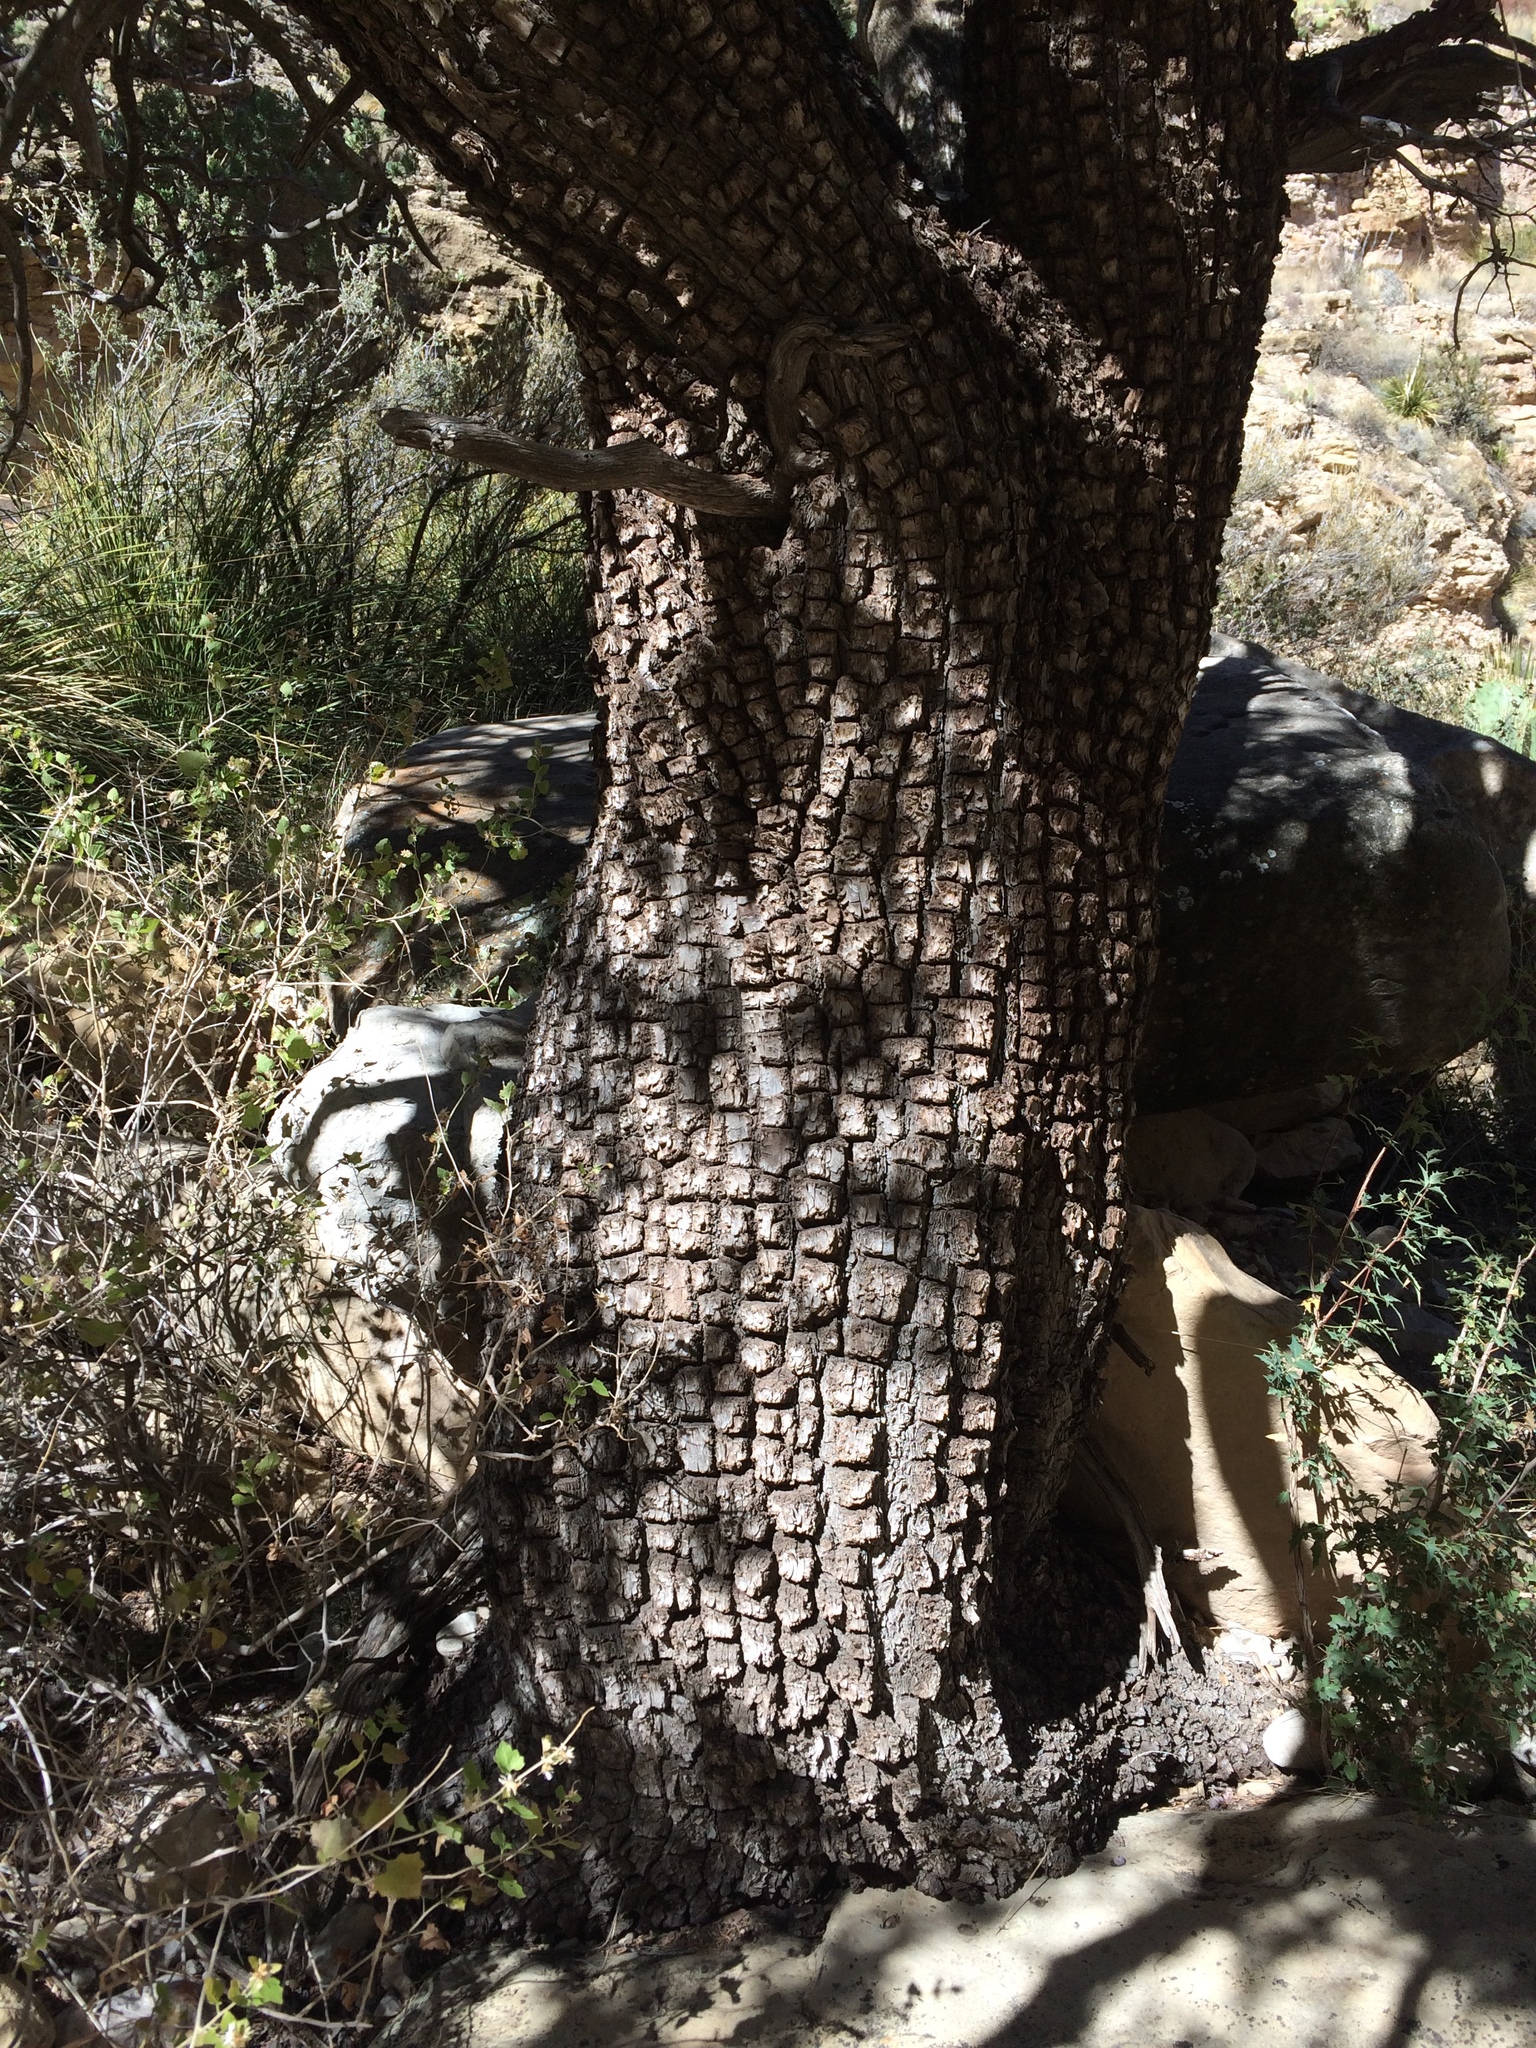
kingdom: Plantae
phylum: Tracheophyta
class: Pinopsida
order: Pinales
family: Cupressaceae
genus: Juniperus
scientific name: Juniperus deppeana
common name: Alligator juniper
